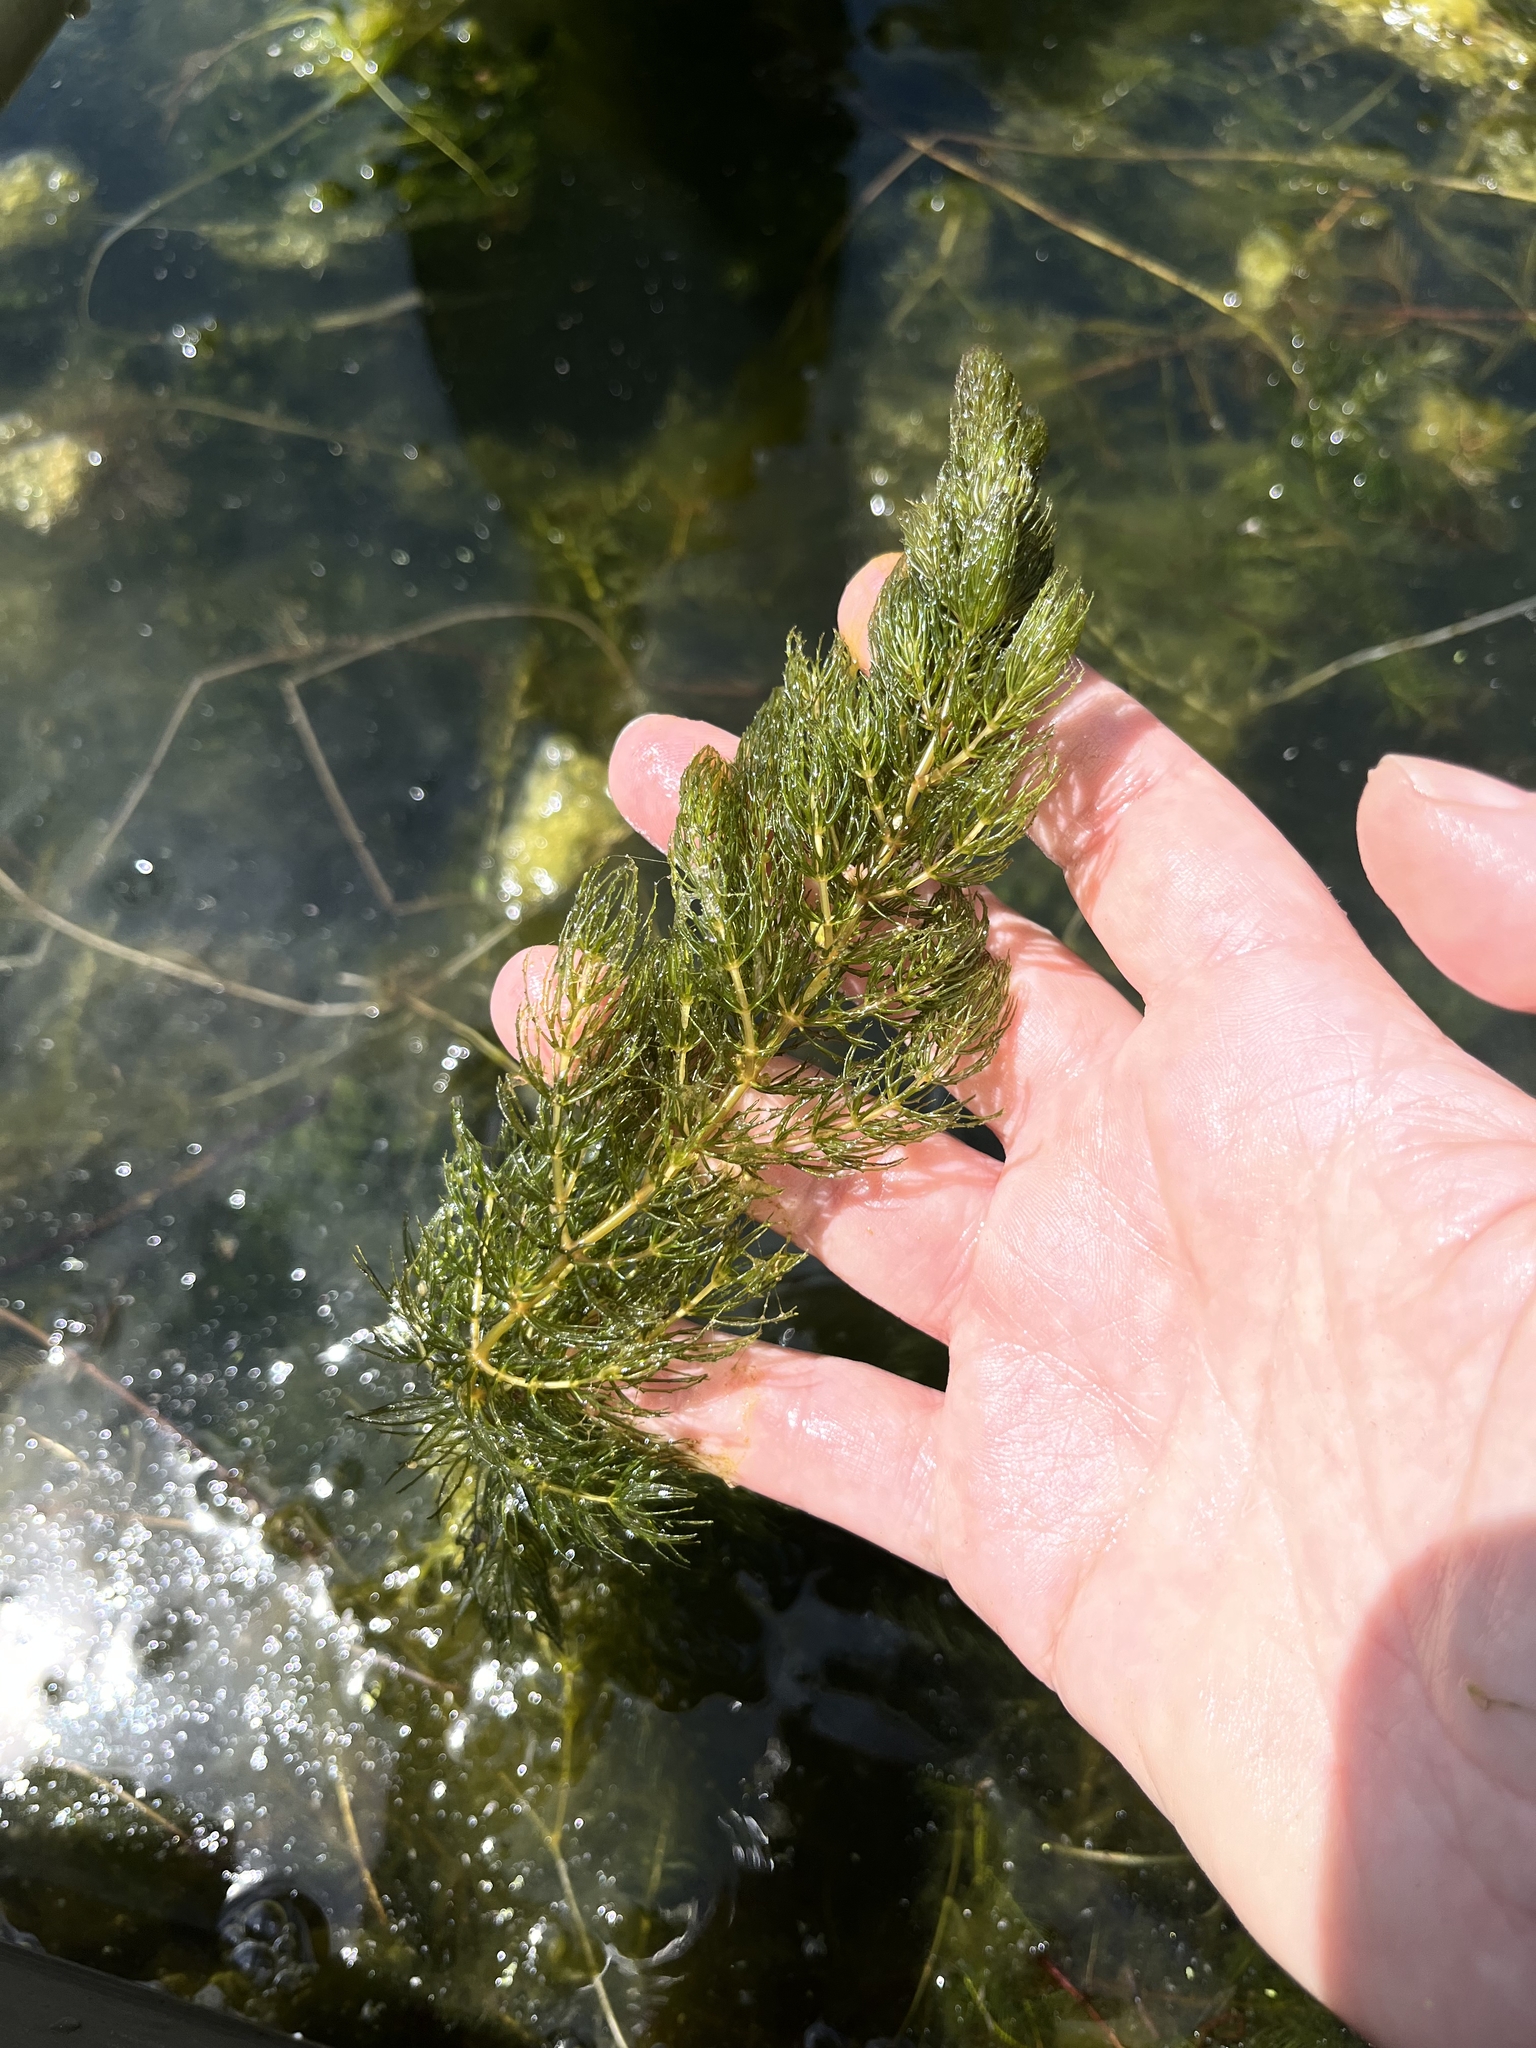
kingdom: Plantae
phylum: Tracheophyta
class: Magnoliopsida
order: Ceratophyllales
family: Ceratophyllaceae
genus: Ceratophyllum
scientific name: Ceratophyllum demersum
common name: Rigid hornwort
